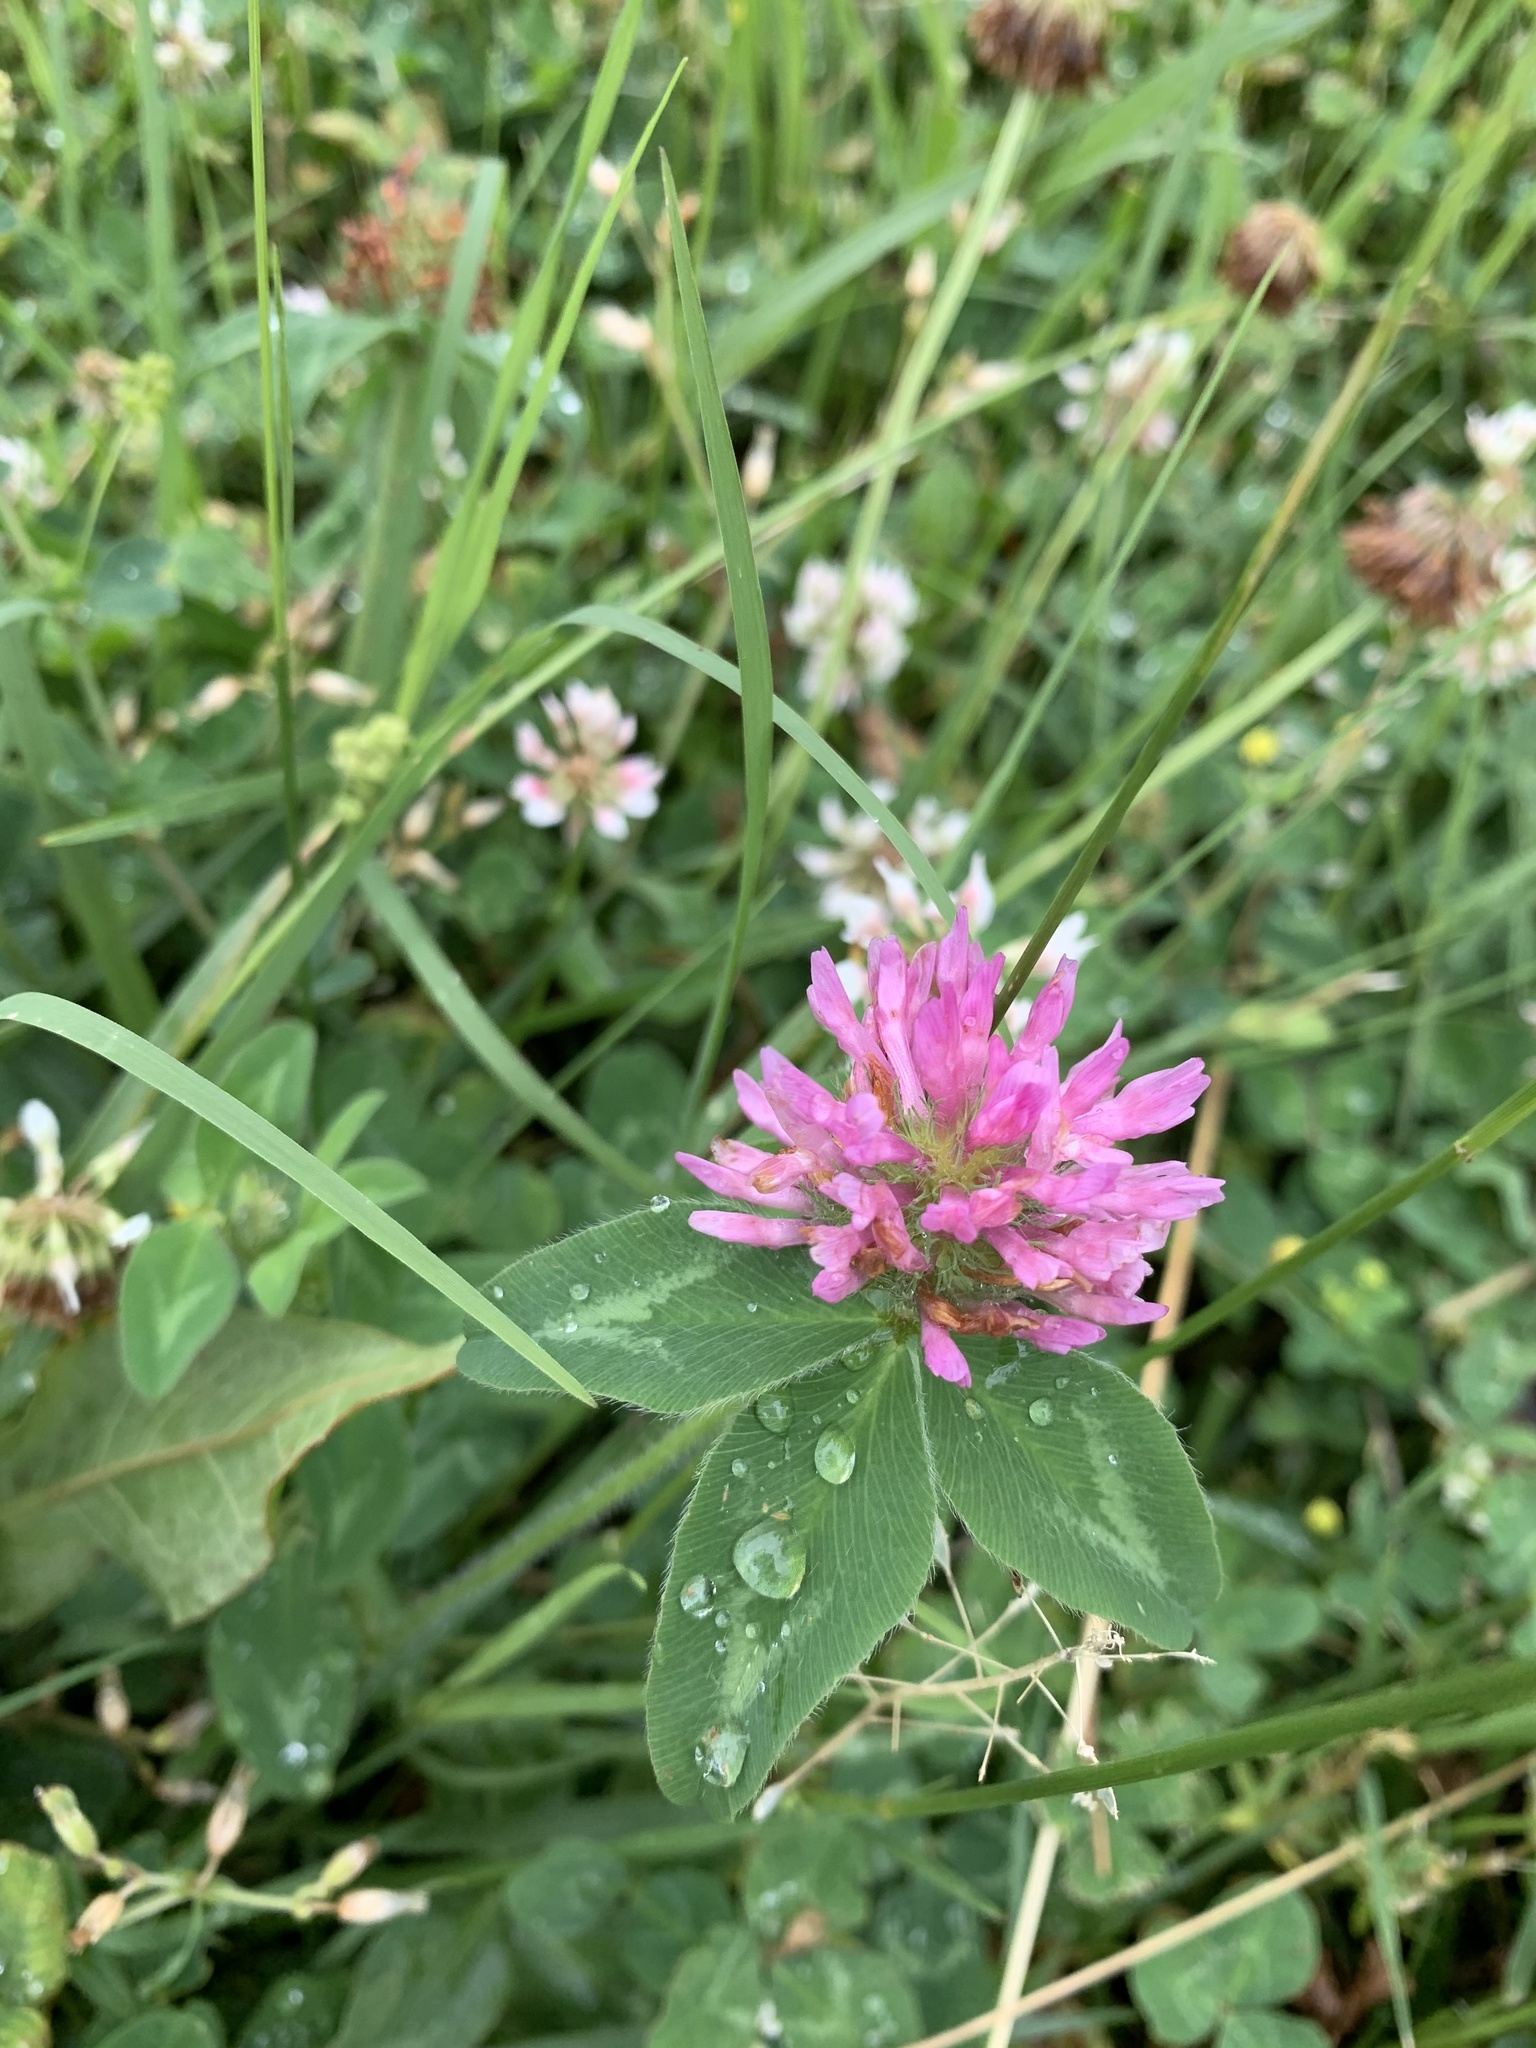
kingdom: Plantae
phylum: Tracheophyta
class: Magnoliopsida
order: Fabales
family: Fabaceae
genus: Trifolium
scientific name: Trifolium pratense
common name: Red clover
